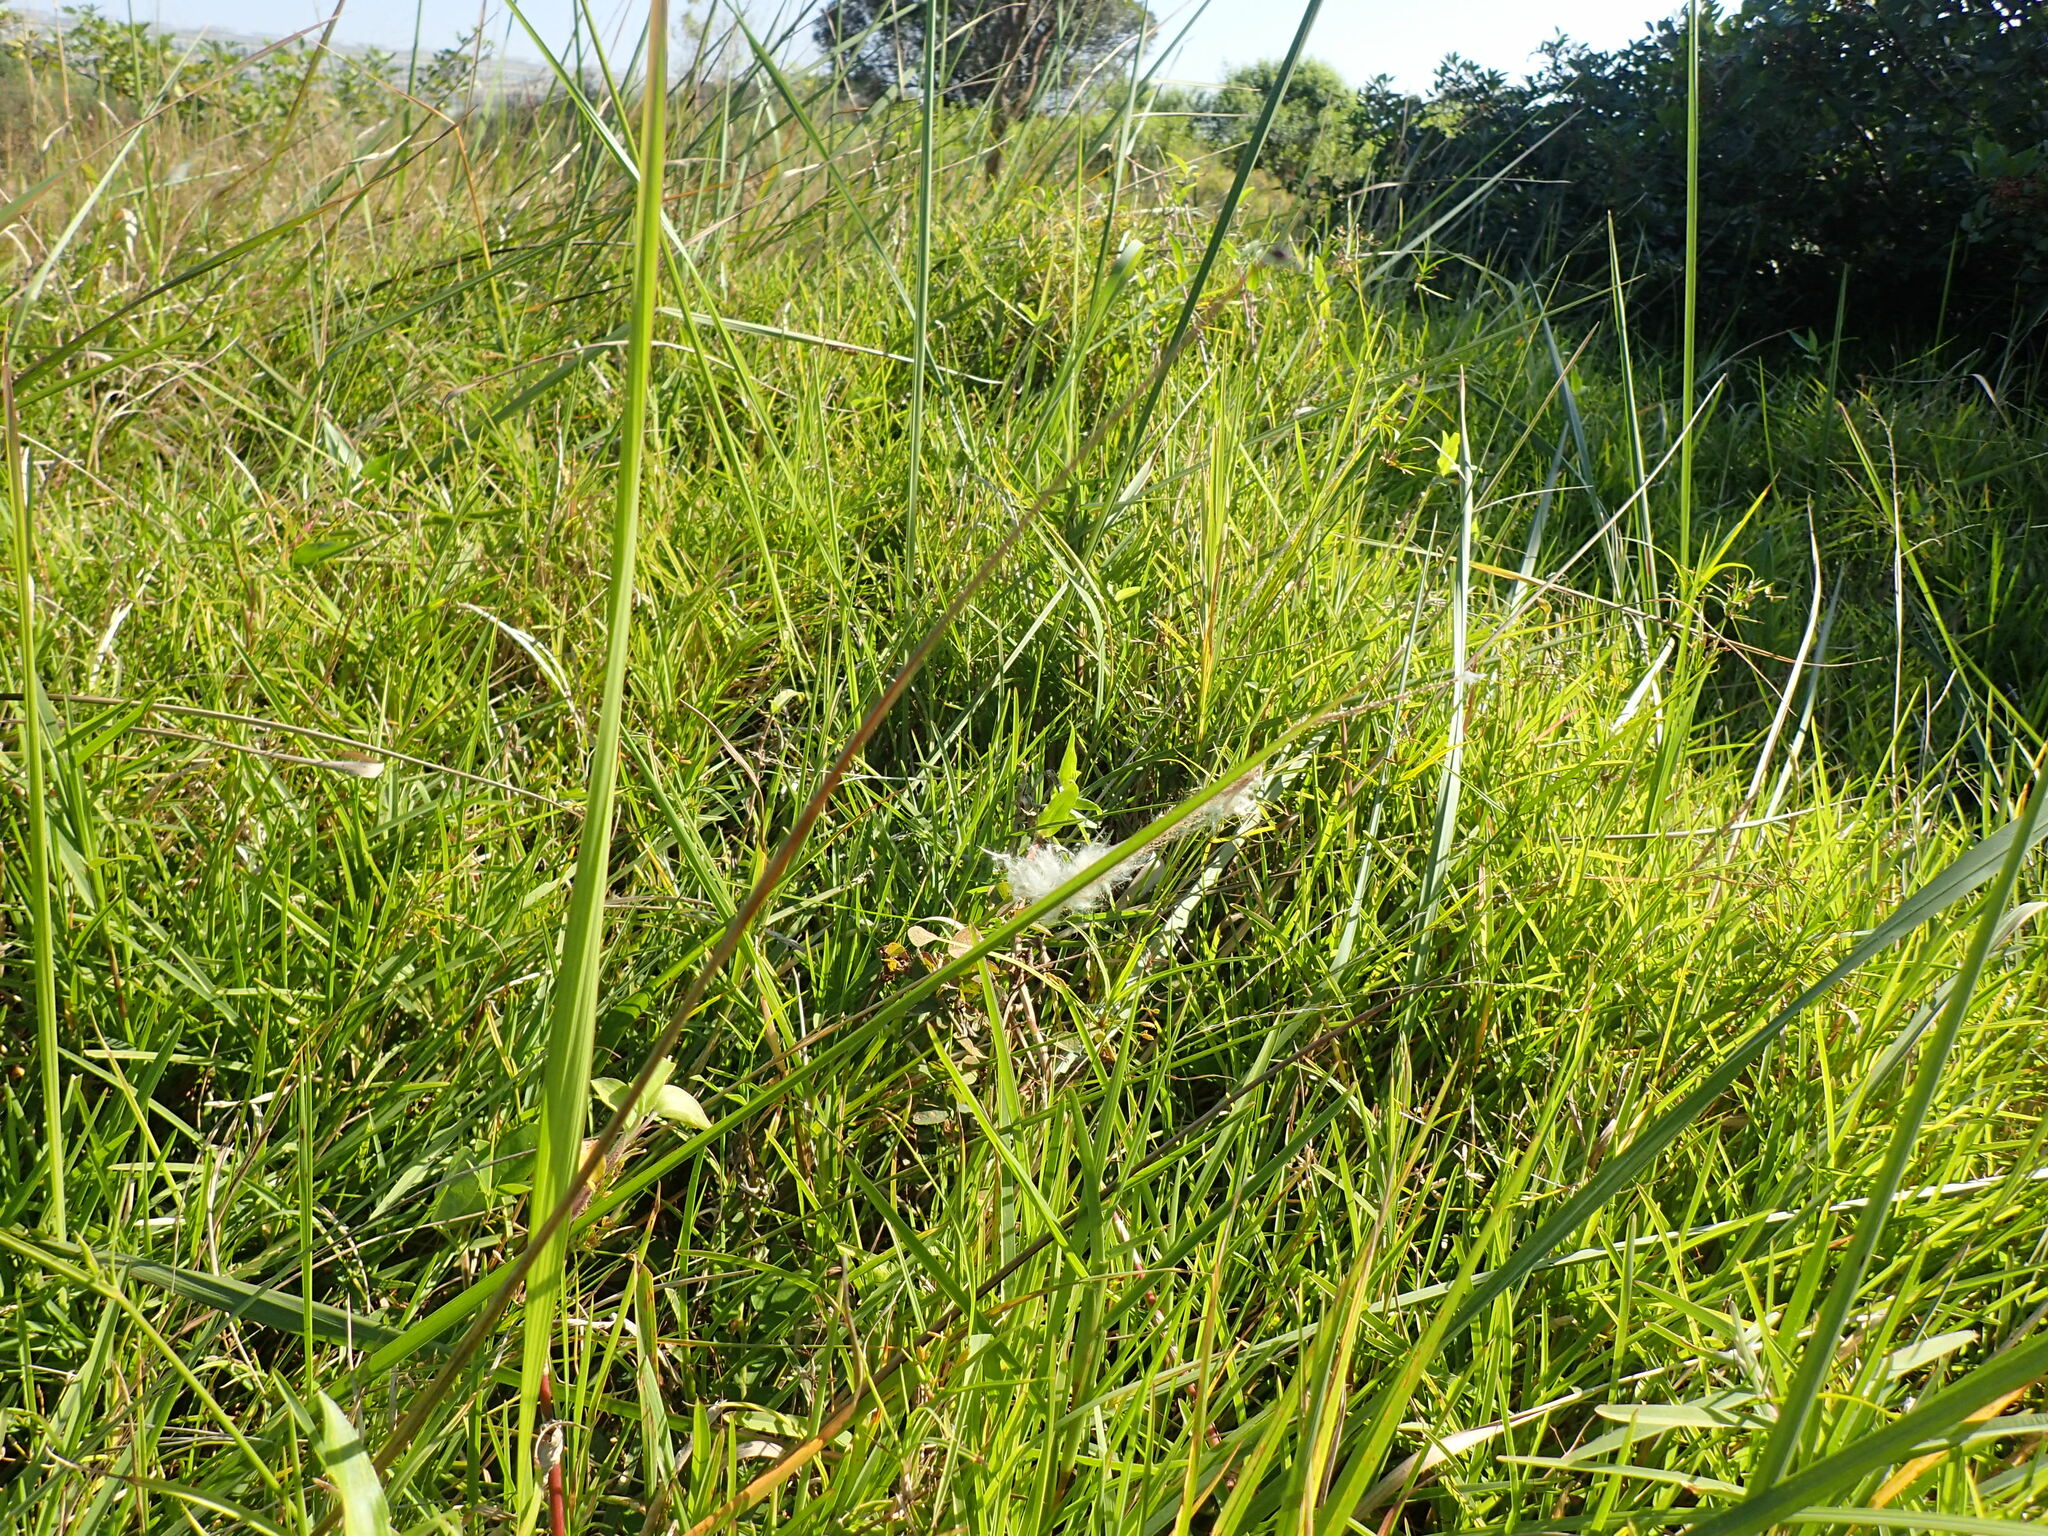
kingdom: Plantae
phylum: Tracheophyta
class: Liliopsida
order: Poales
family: Poaceae
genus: Imperata
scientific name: Imperata cylindrica
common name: Cogongrass
